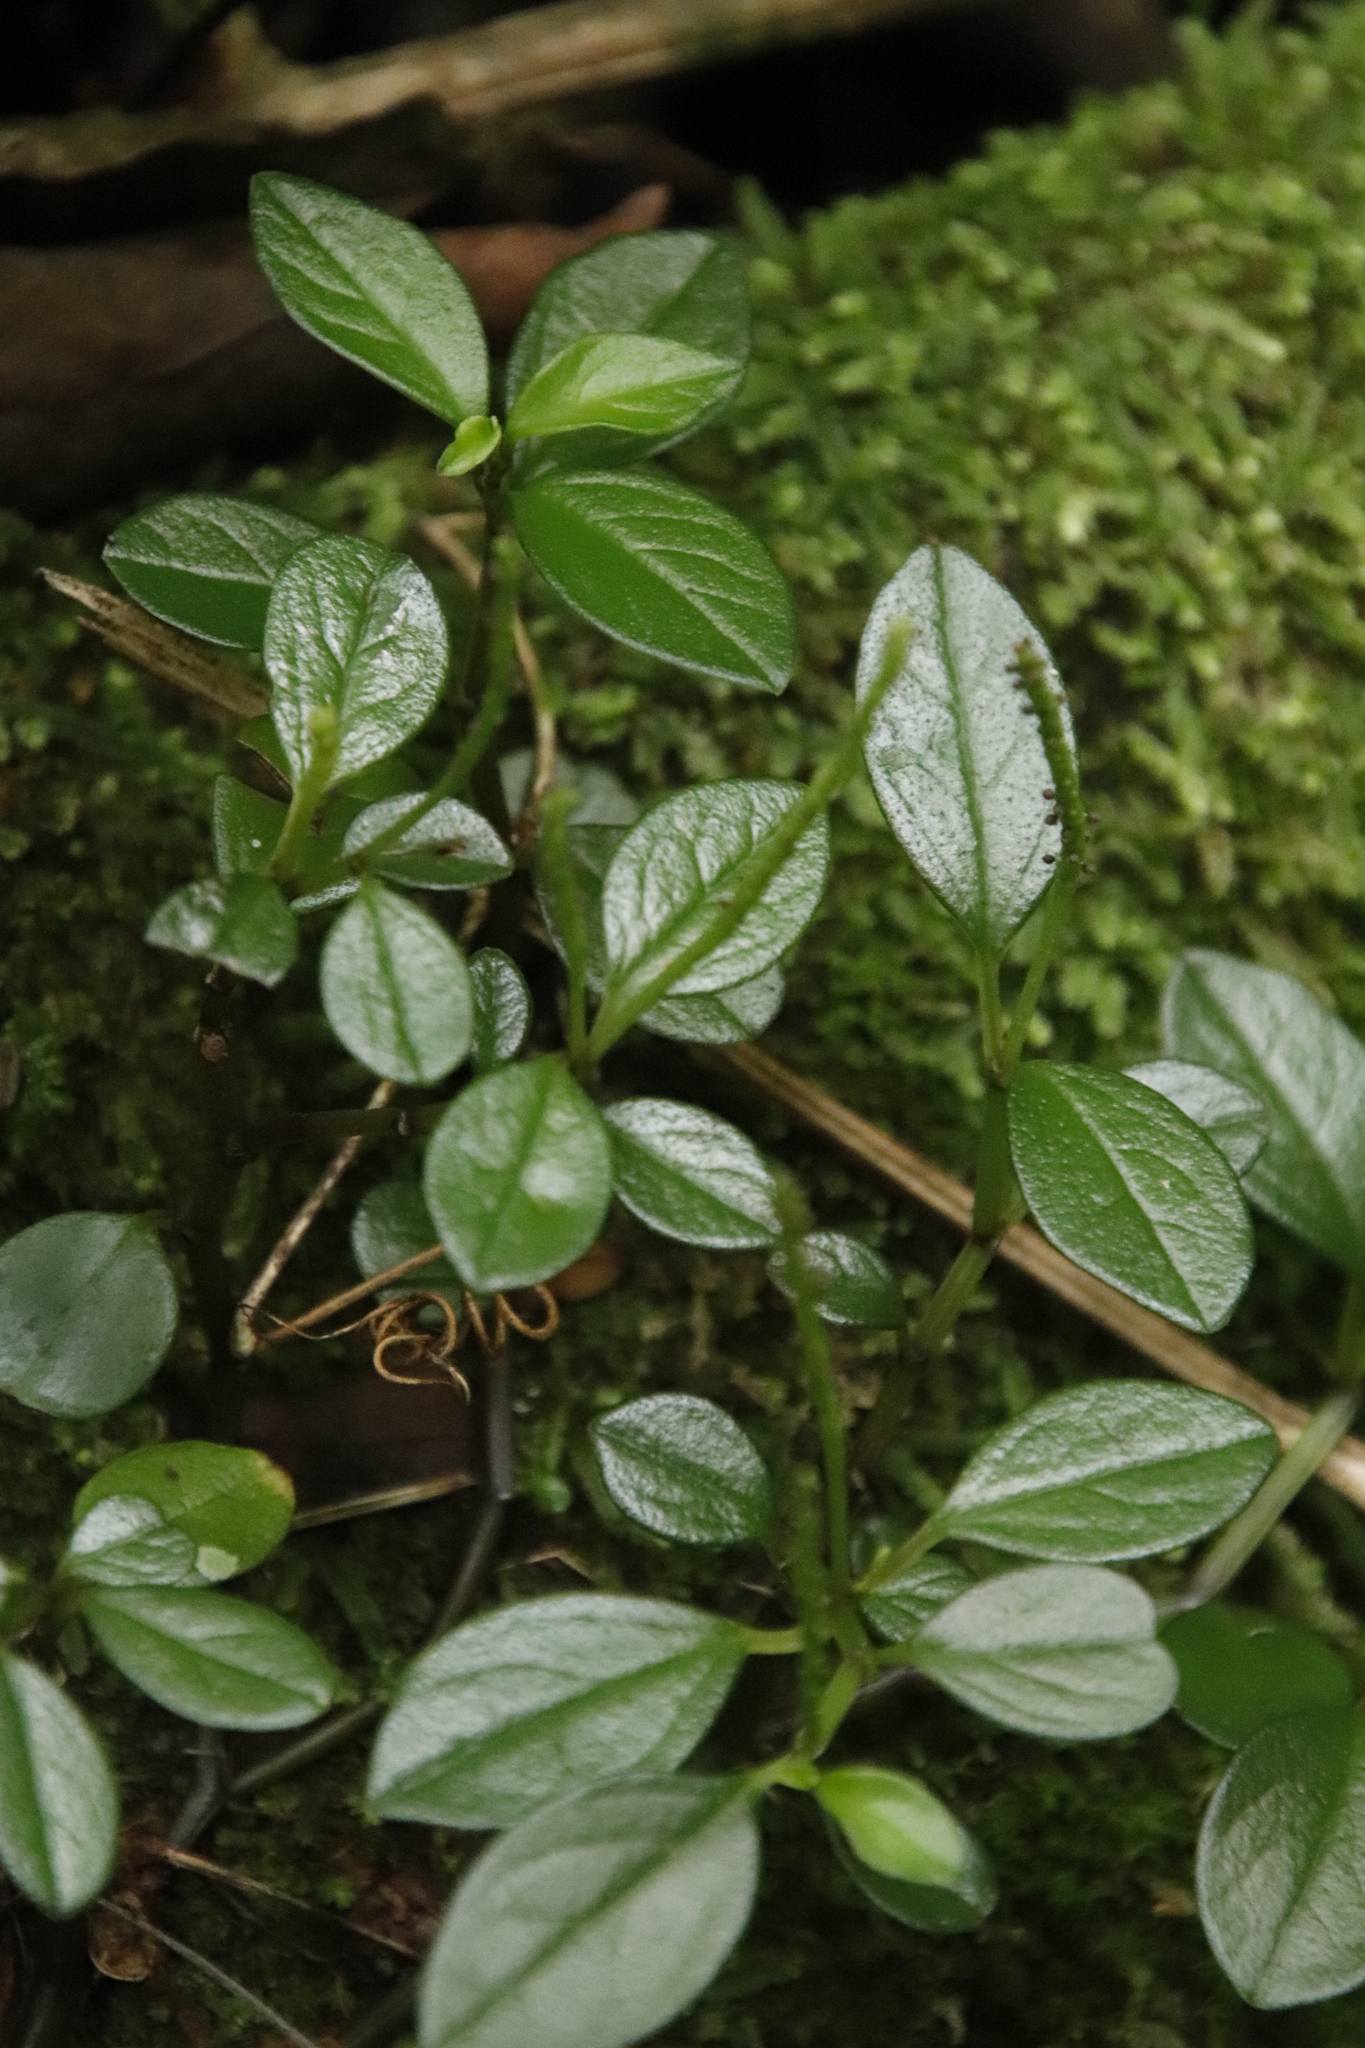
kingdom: Plantae
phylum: Tracheophyta
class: Magnoliopsida
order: Piperales
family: Piperaceae
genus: Peperomia
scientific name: Peperomia retusa
